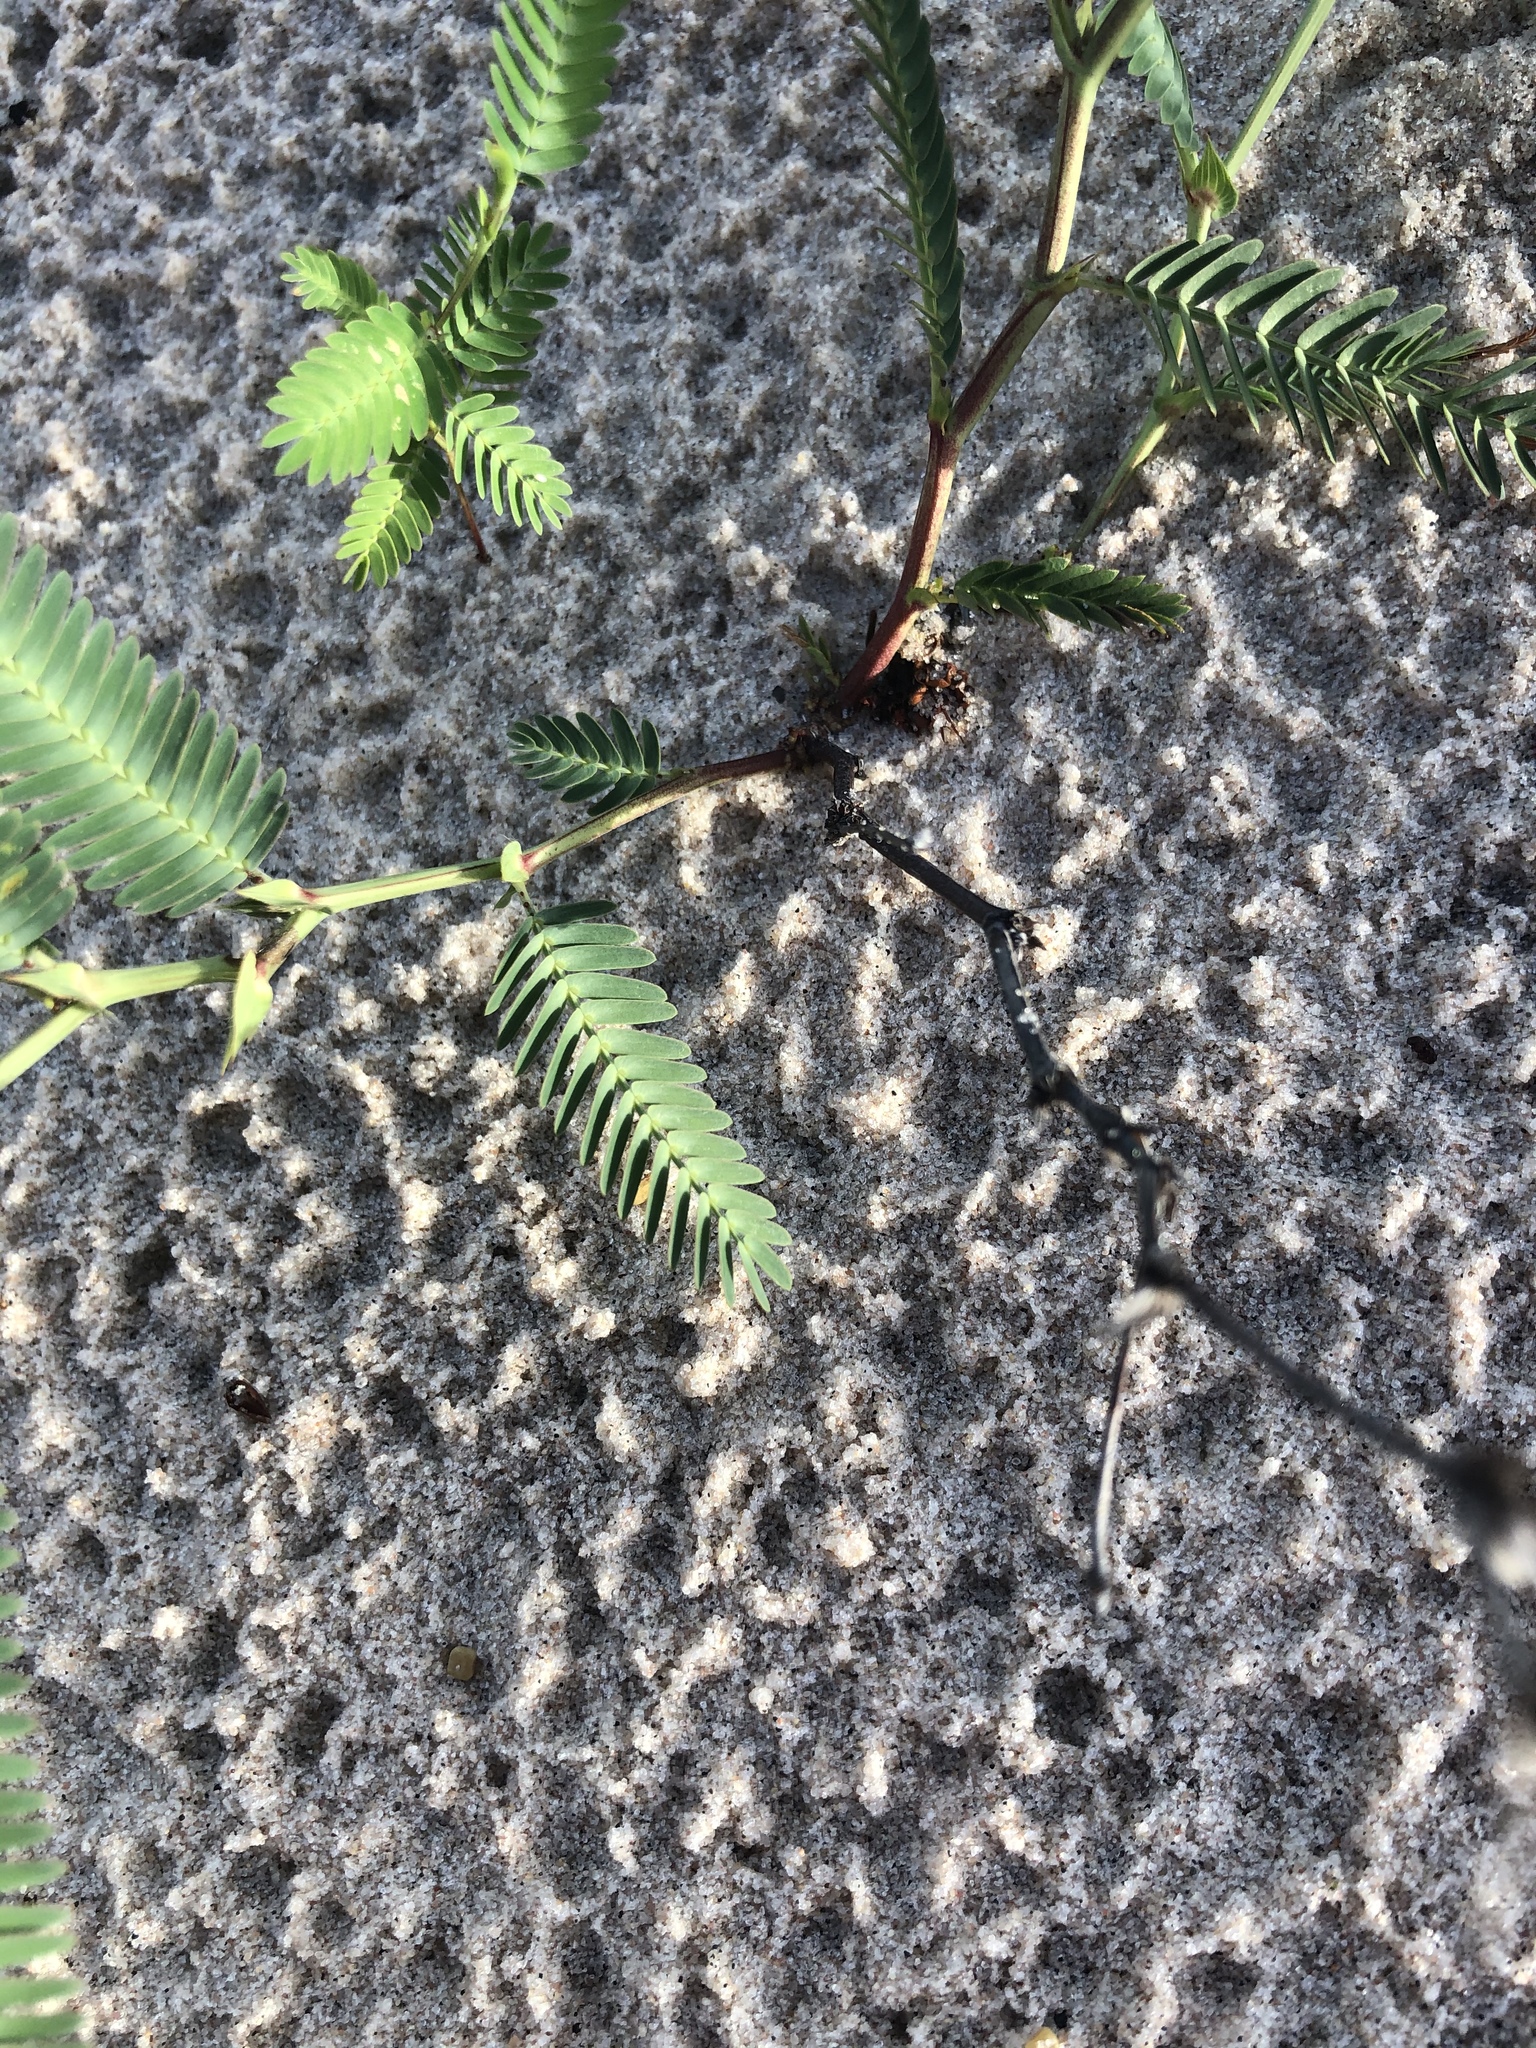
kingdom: Plantae
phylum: Tracheophyta
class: Magnoliopsida
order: Fabales
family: Fabaceae
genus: Chamaecrista
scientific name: Chamaecrista flexuosa
